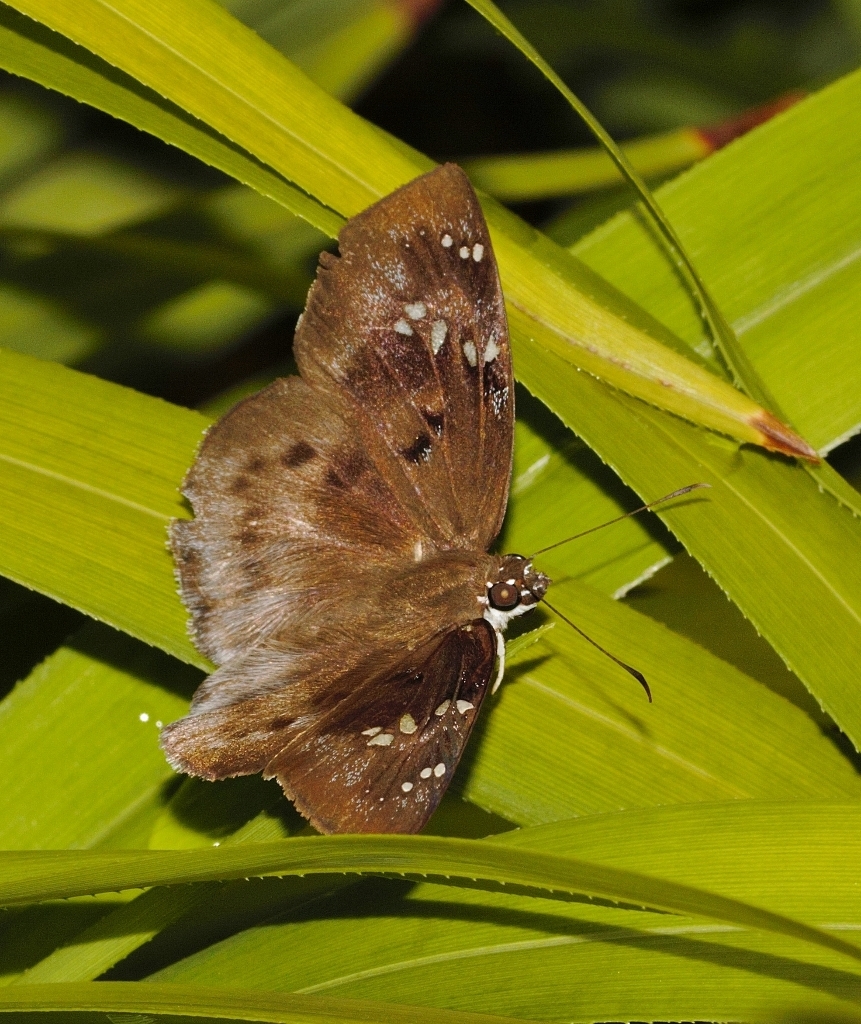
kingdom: Animalia
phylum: Arthropoda
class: Insecta
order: Lepidoptera
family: Hesperiidae
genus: Tagiades
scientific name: Tagiades flesus
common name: Clouded flat
